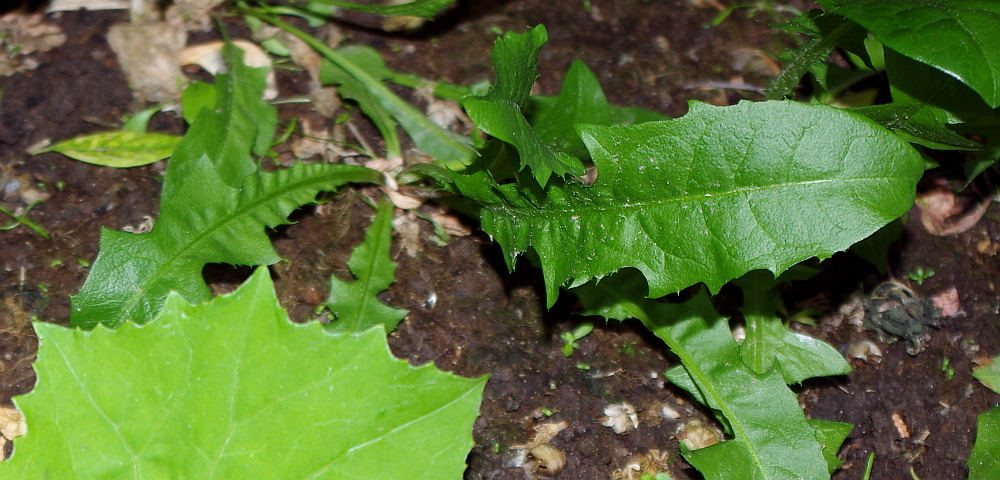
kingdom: Plantae
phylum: Tracheophyta
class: Magnoliopsida
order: Asterales
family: Asteraceae
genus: Taraxacum
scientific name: Taraxacum officinale
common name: Common dandelion
